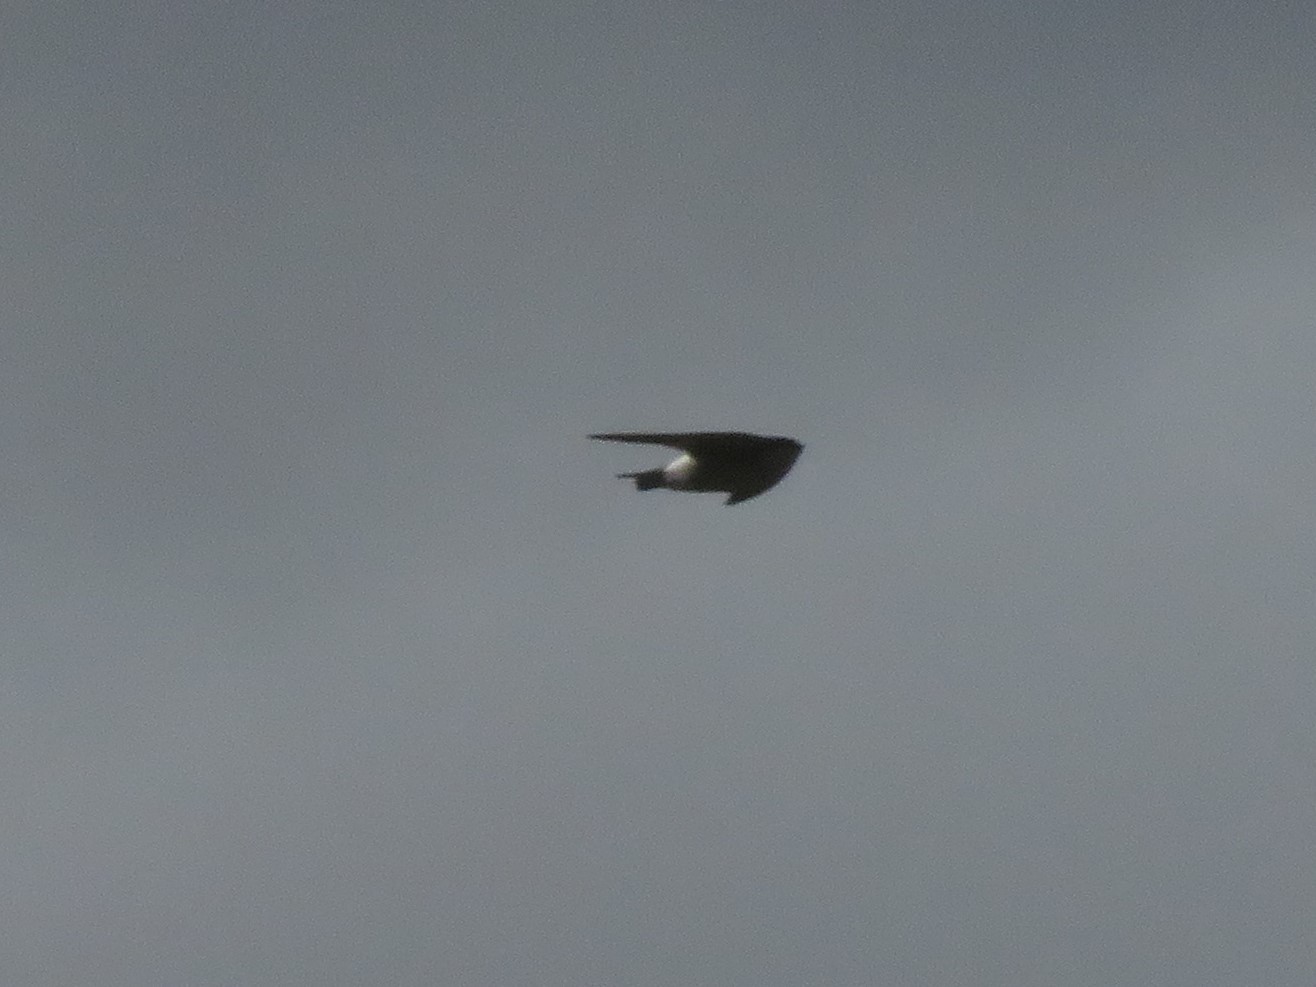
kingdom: Animalia
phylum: Chordata
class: Aves
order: Passeriformes
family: Hirundinidae
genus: Tachycineta
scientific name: Tachycineta leucorrhoa
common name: White-rumped swallow
